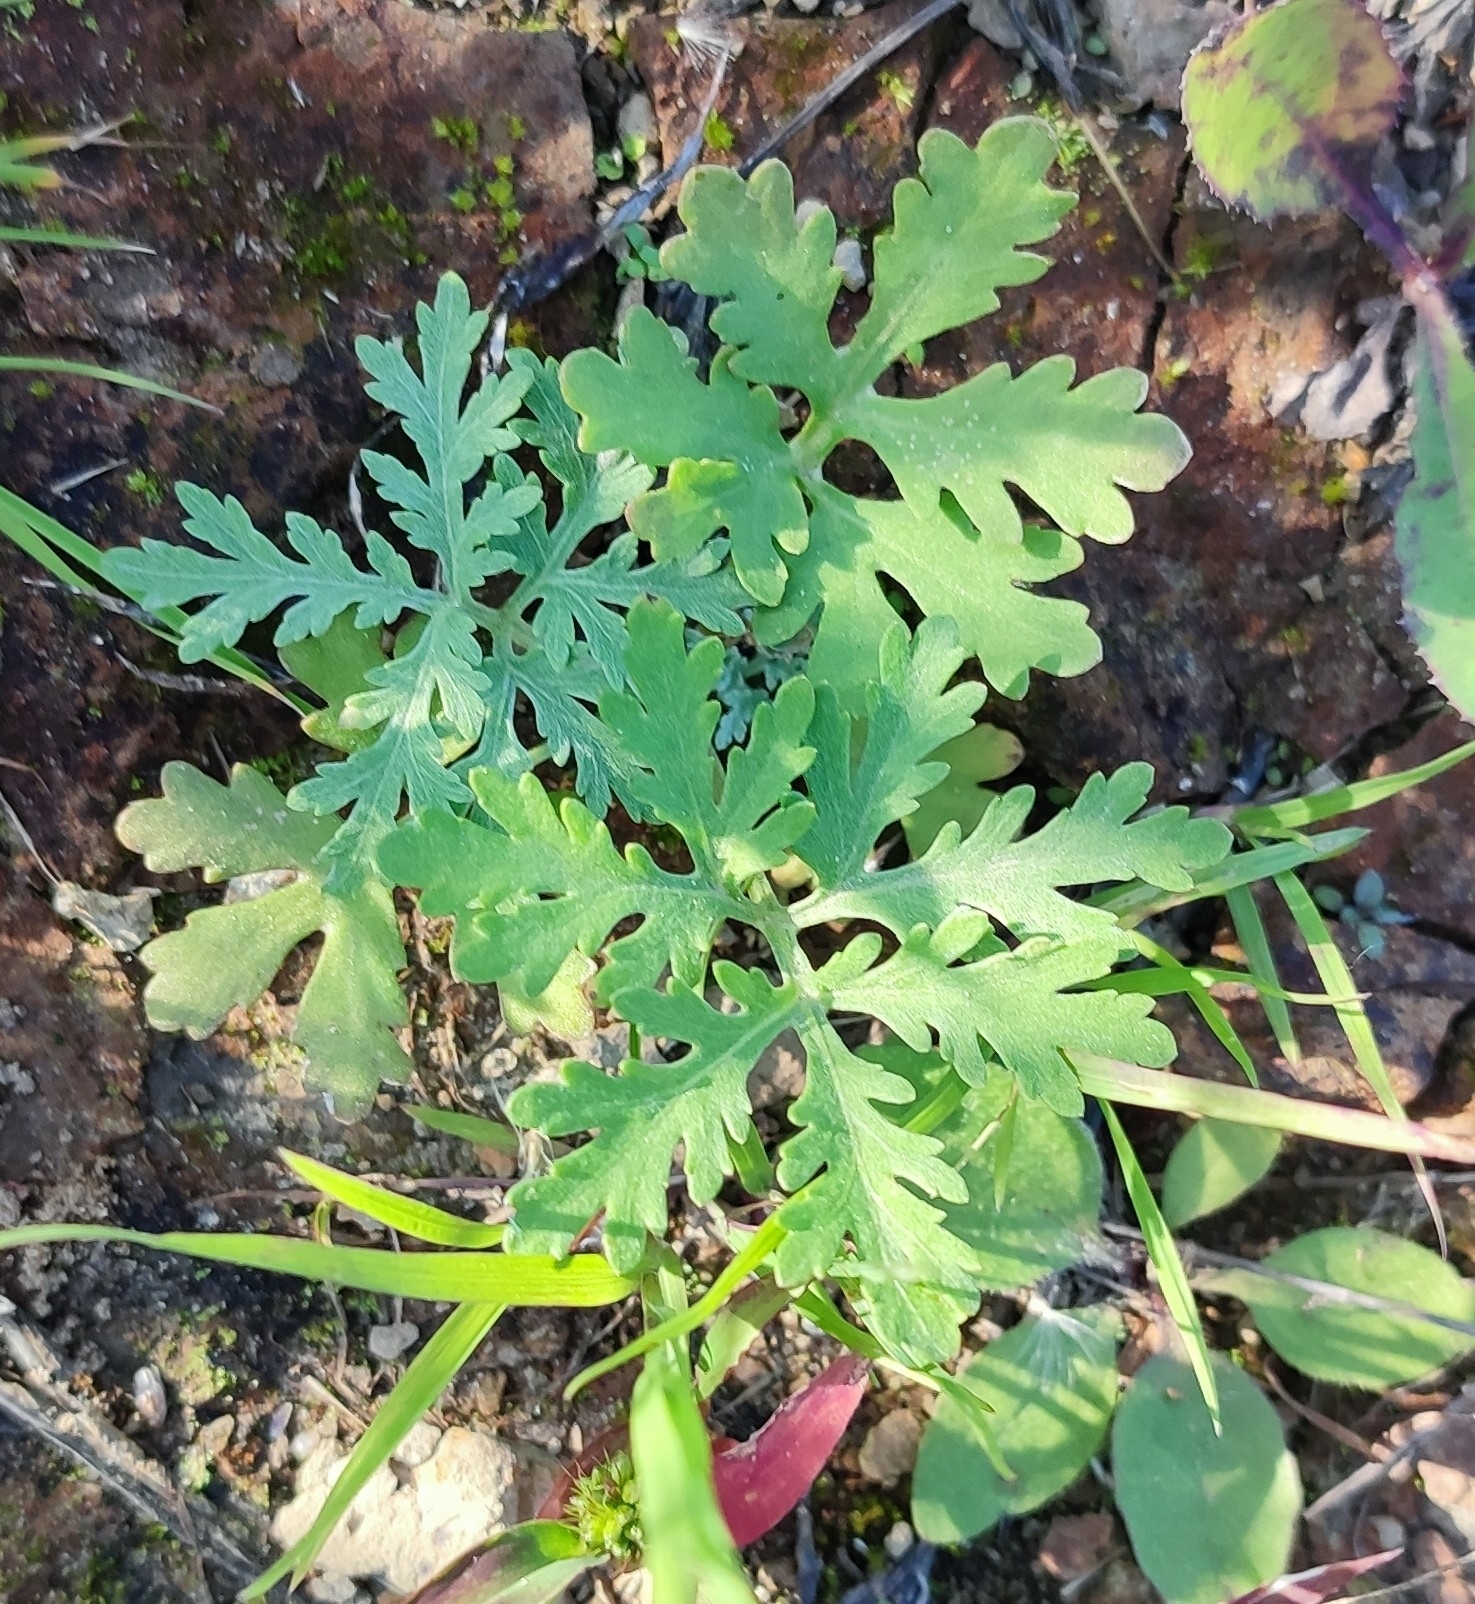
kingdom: Plantae
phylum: Tracheophyta
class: Magnoliopsida
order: Asterales
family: Asteraceae
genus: Artemisia
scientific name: Artemisia sieversiana
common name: Sieversian wormwood
